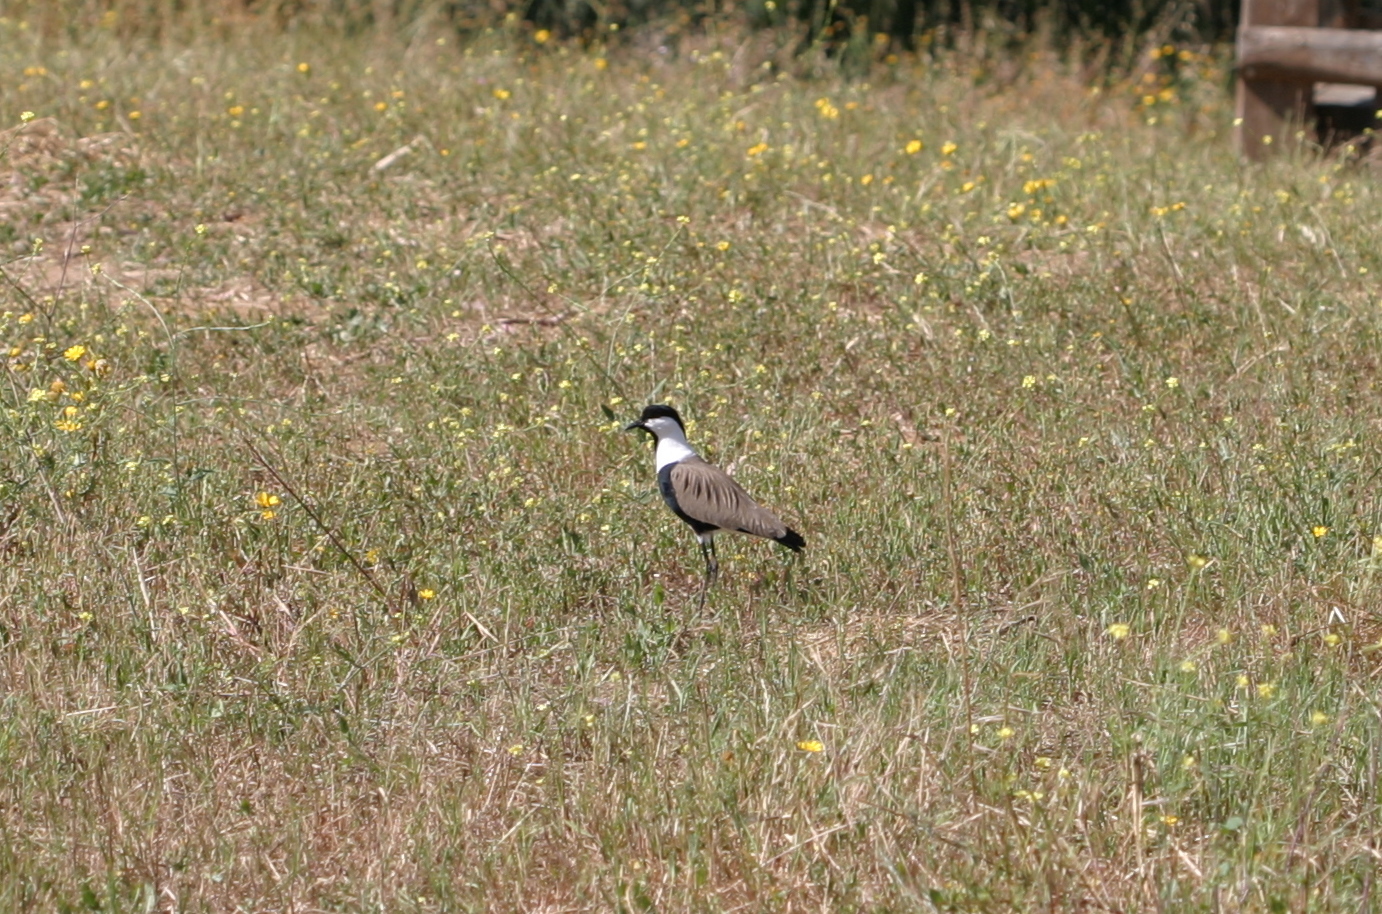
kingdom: Animalia
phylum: Chordata
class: Aves
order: Charadriiformes
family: Charadriidae
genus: Vanellus
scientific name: Vanellus spinosus
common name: Spur-winged lapwing
